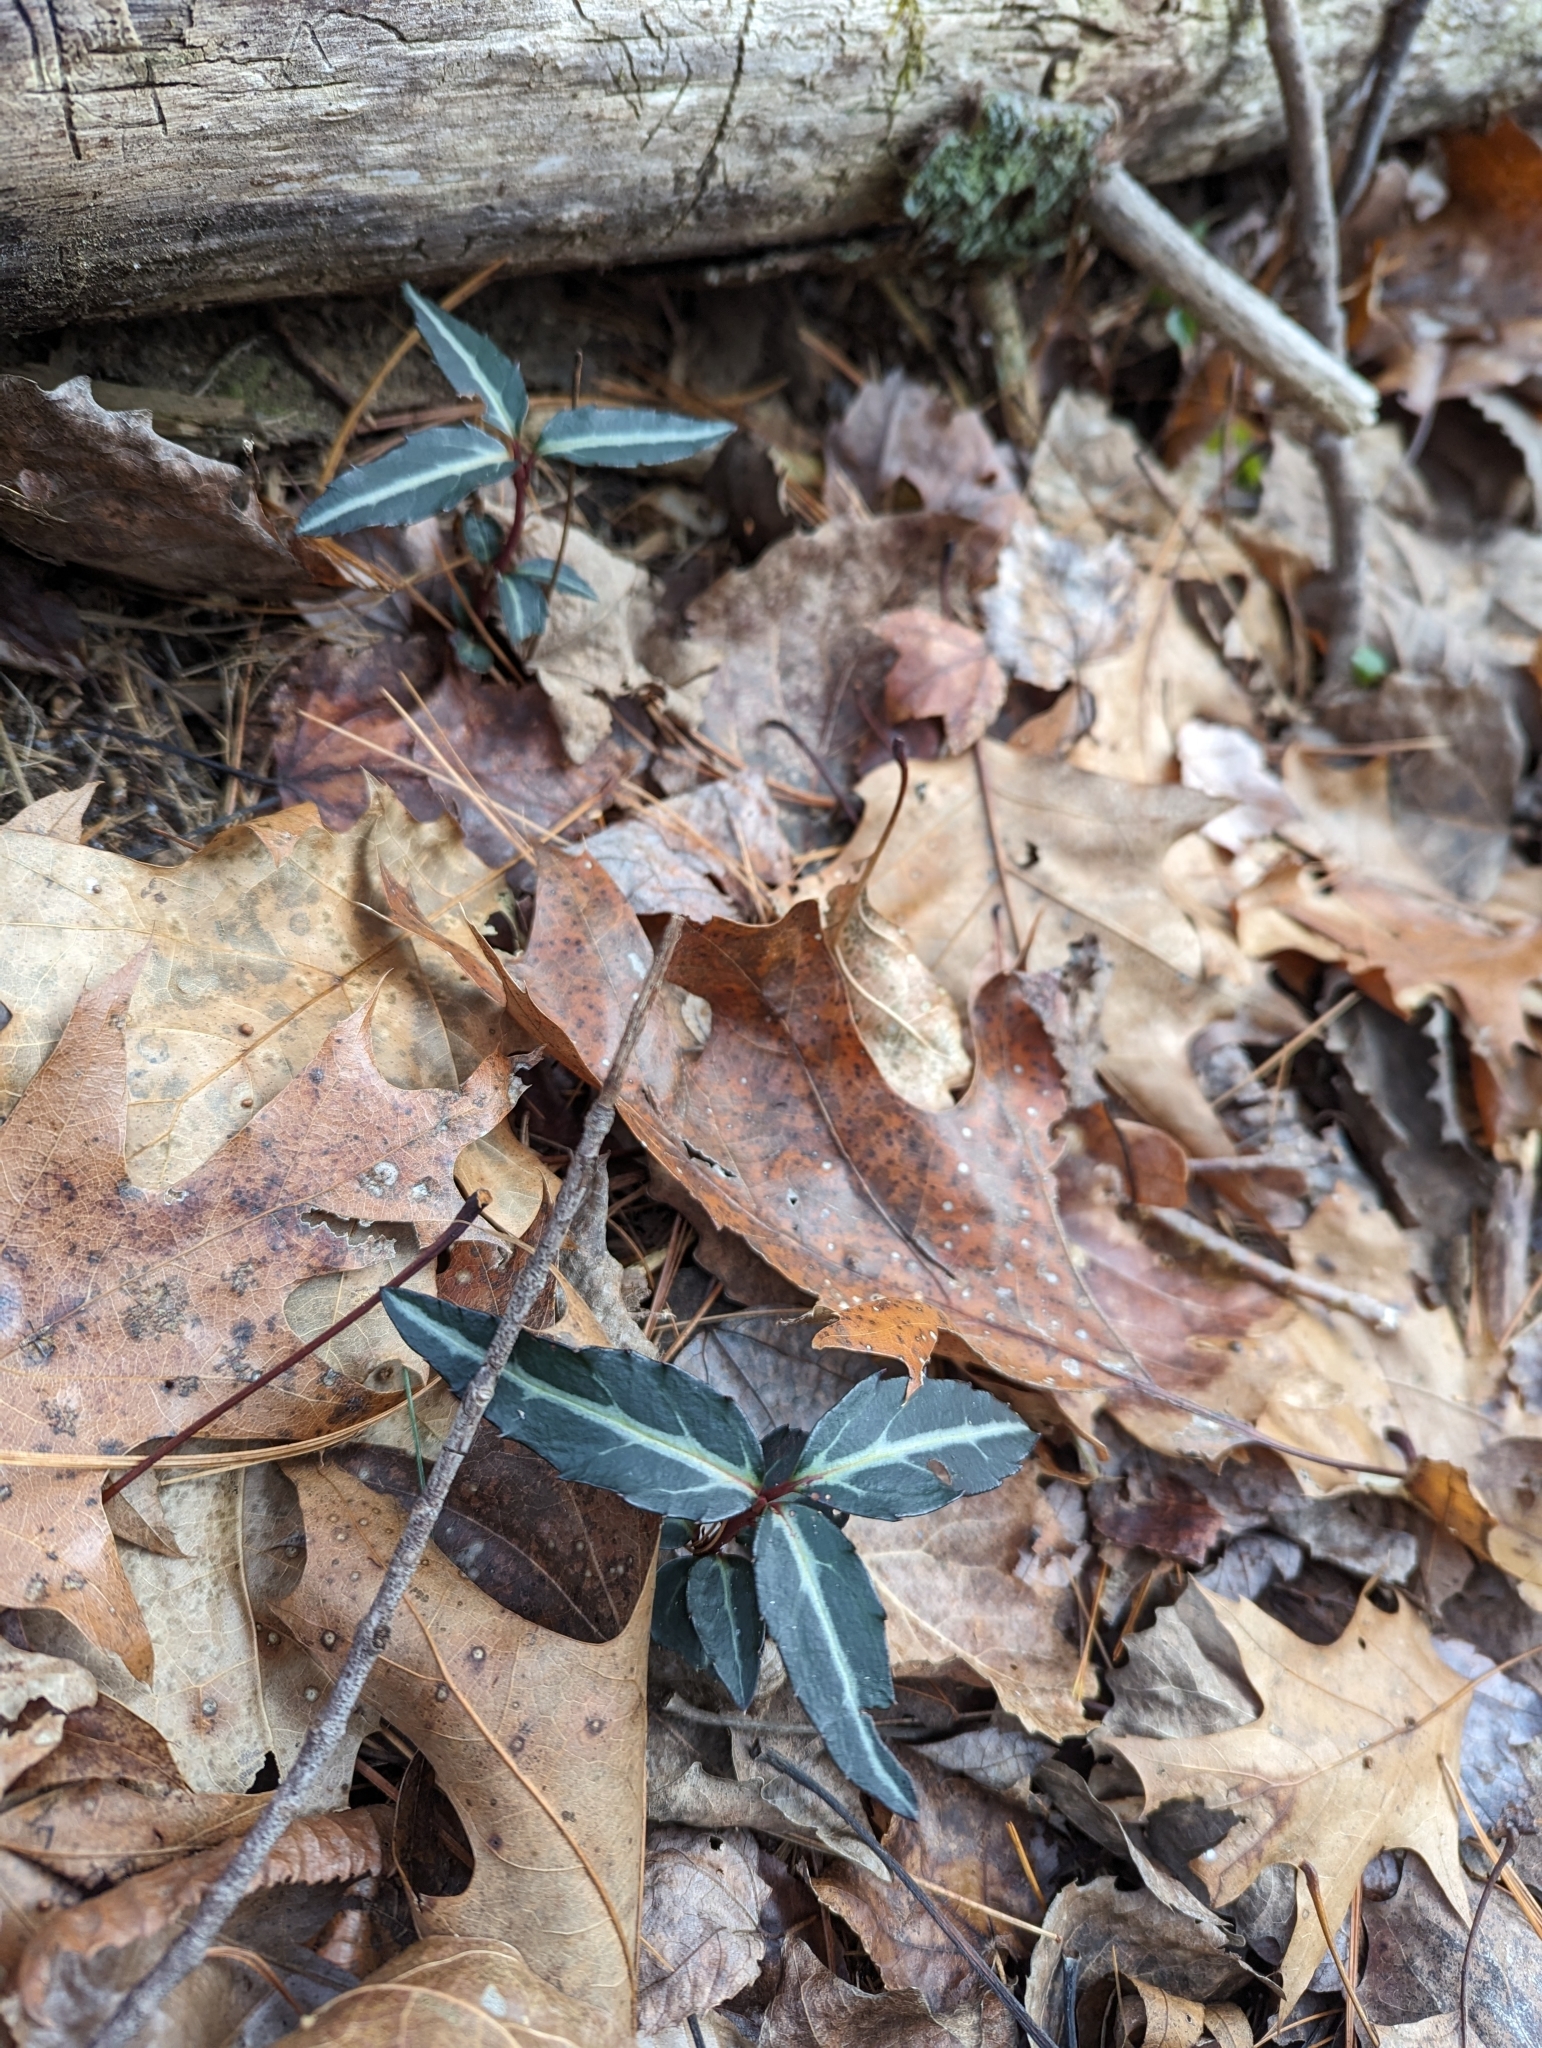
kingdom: Plantae
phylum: Tracheophyta
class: Magnoliopsida
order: Ericales
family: Ericaceae
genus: Chimaphila
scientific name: Chimaphila maculata
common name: Spotted pipsissewa
